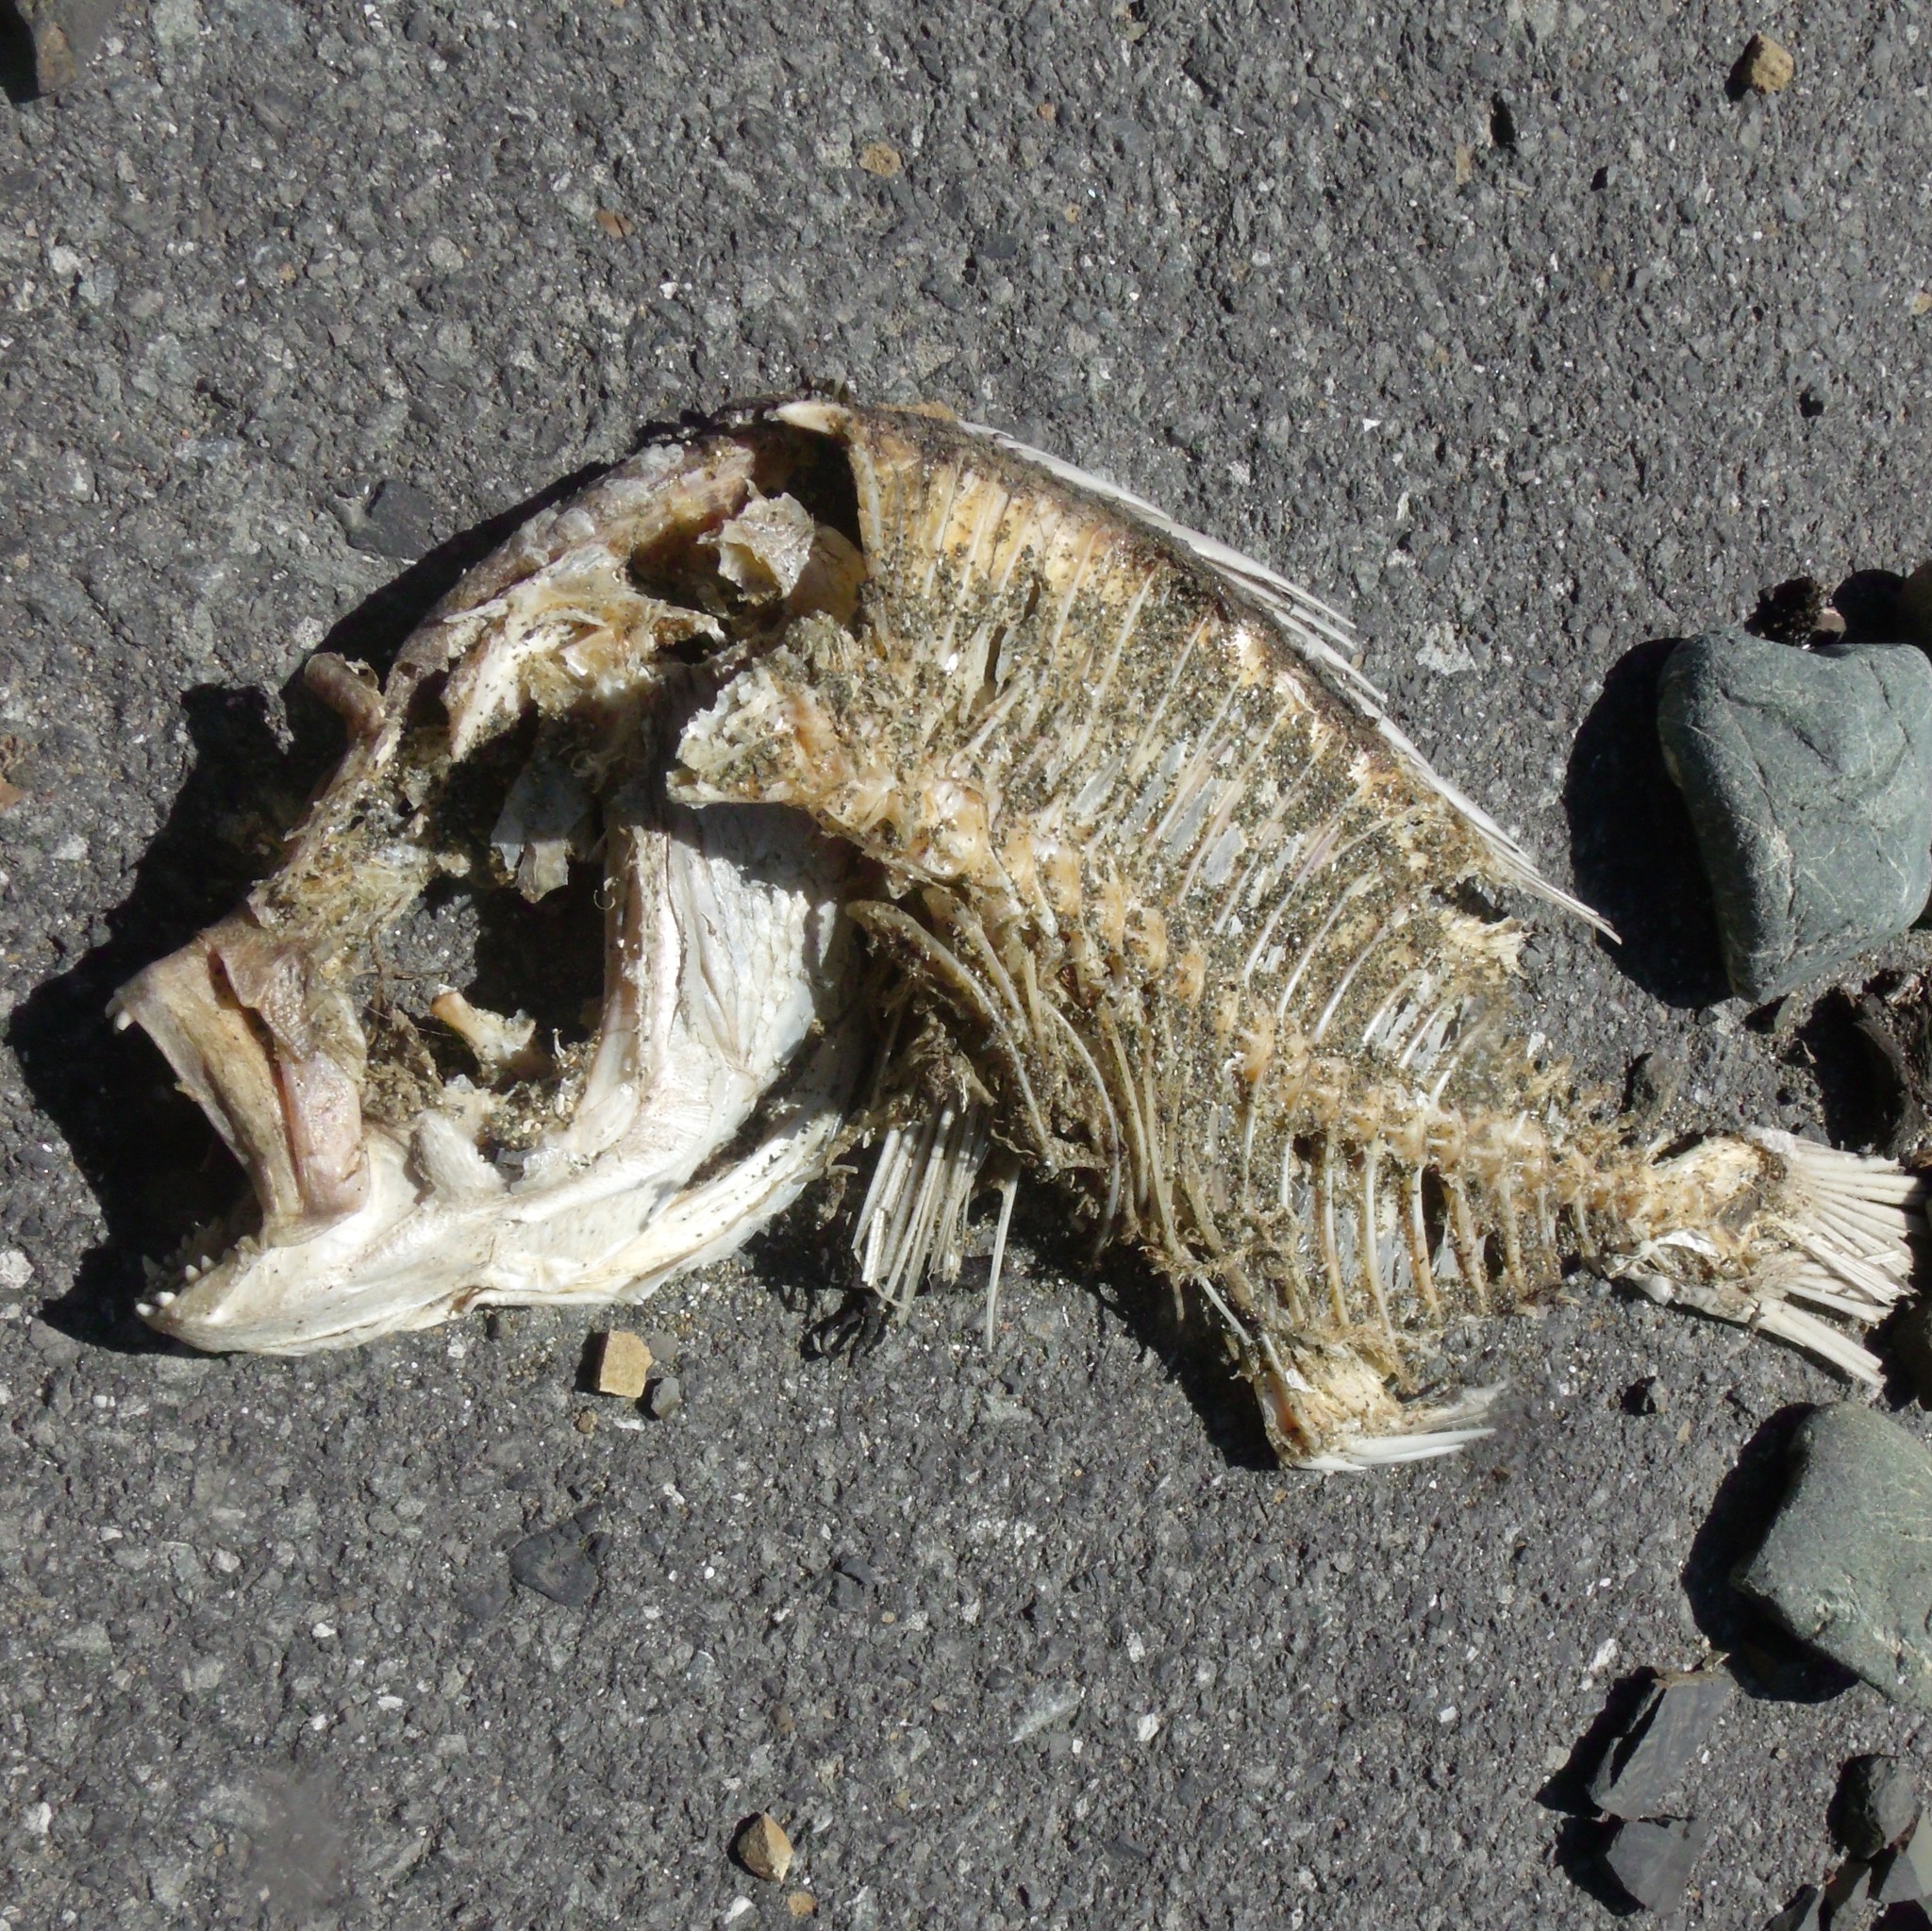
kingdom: Animalia
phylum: Chordata
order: Perciformes
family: Sparidae
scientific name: Sparidae
